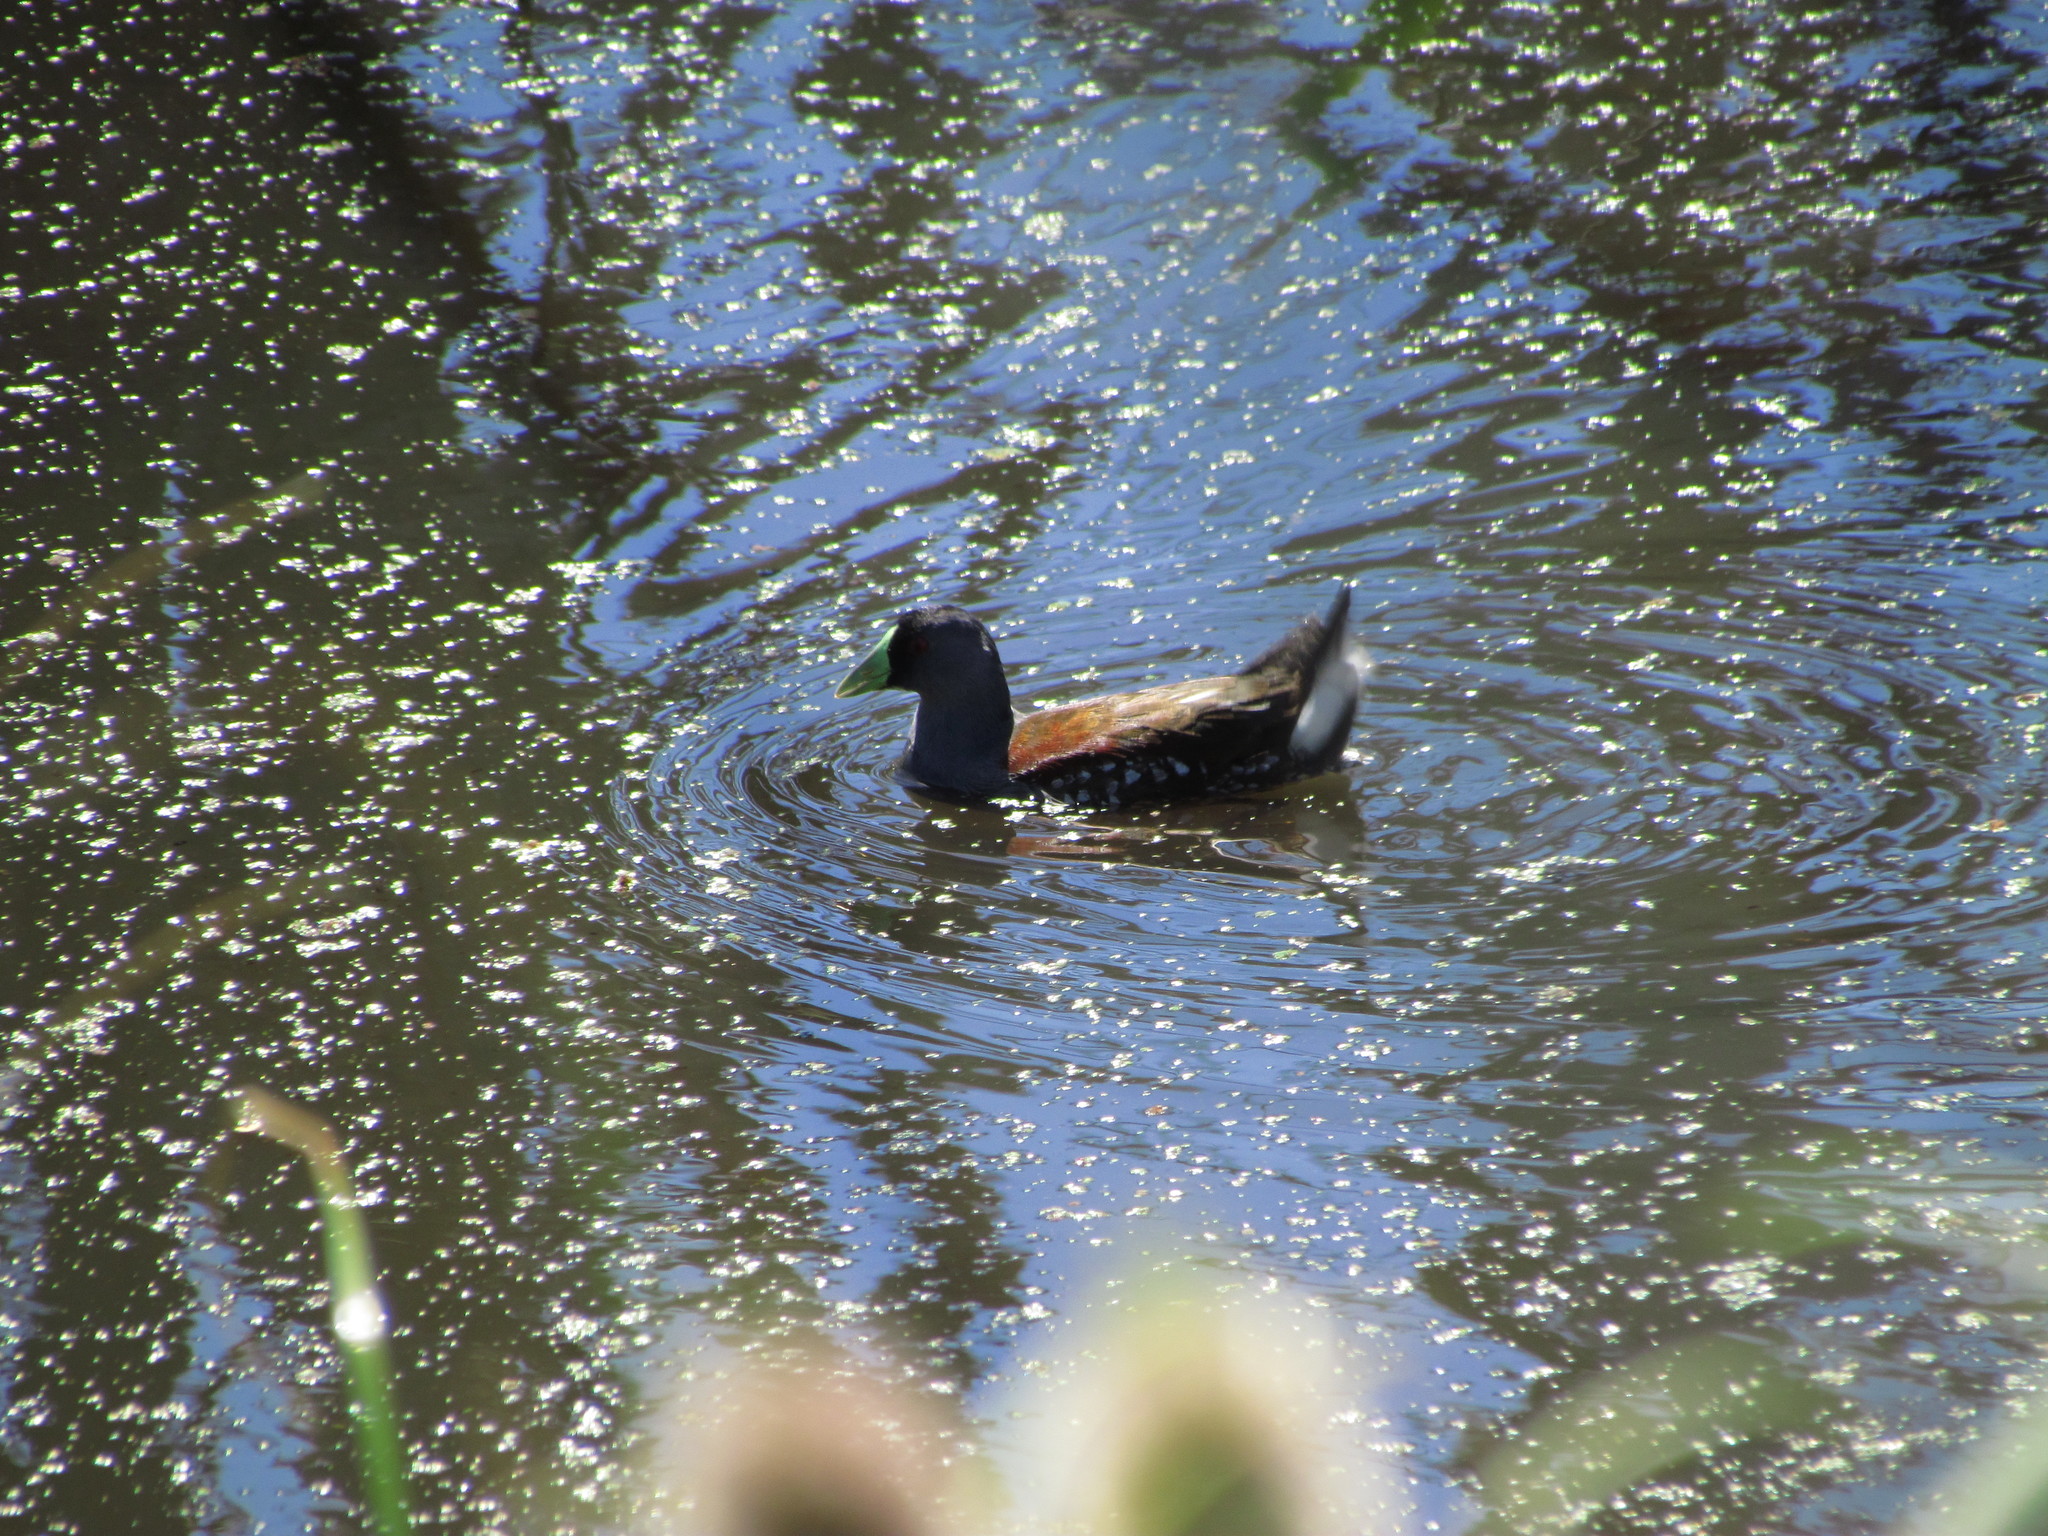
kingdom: Animalia
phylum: Chordata
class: Aves
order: Gruiformes
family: Rallidae
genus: Gallinula
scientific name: Gallinula melanops
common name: Spot-flanked gallinule
